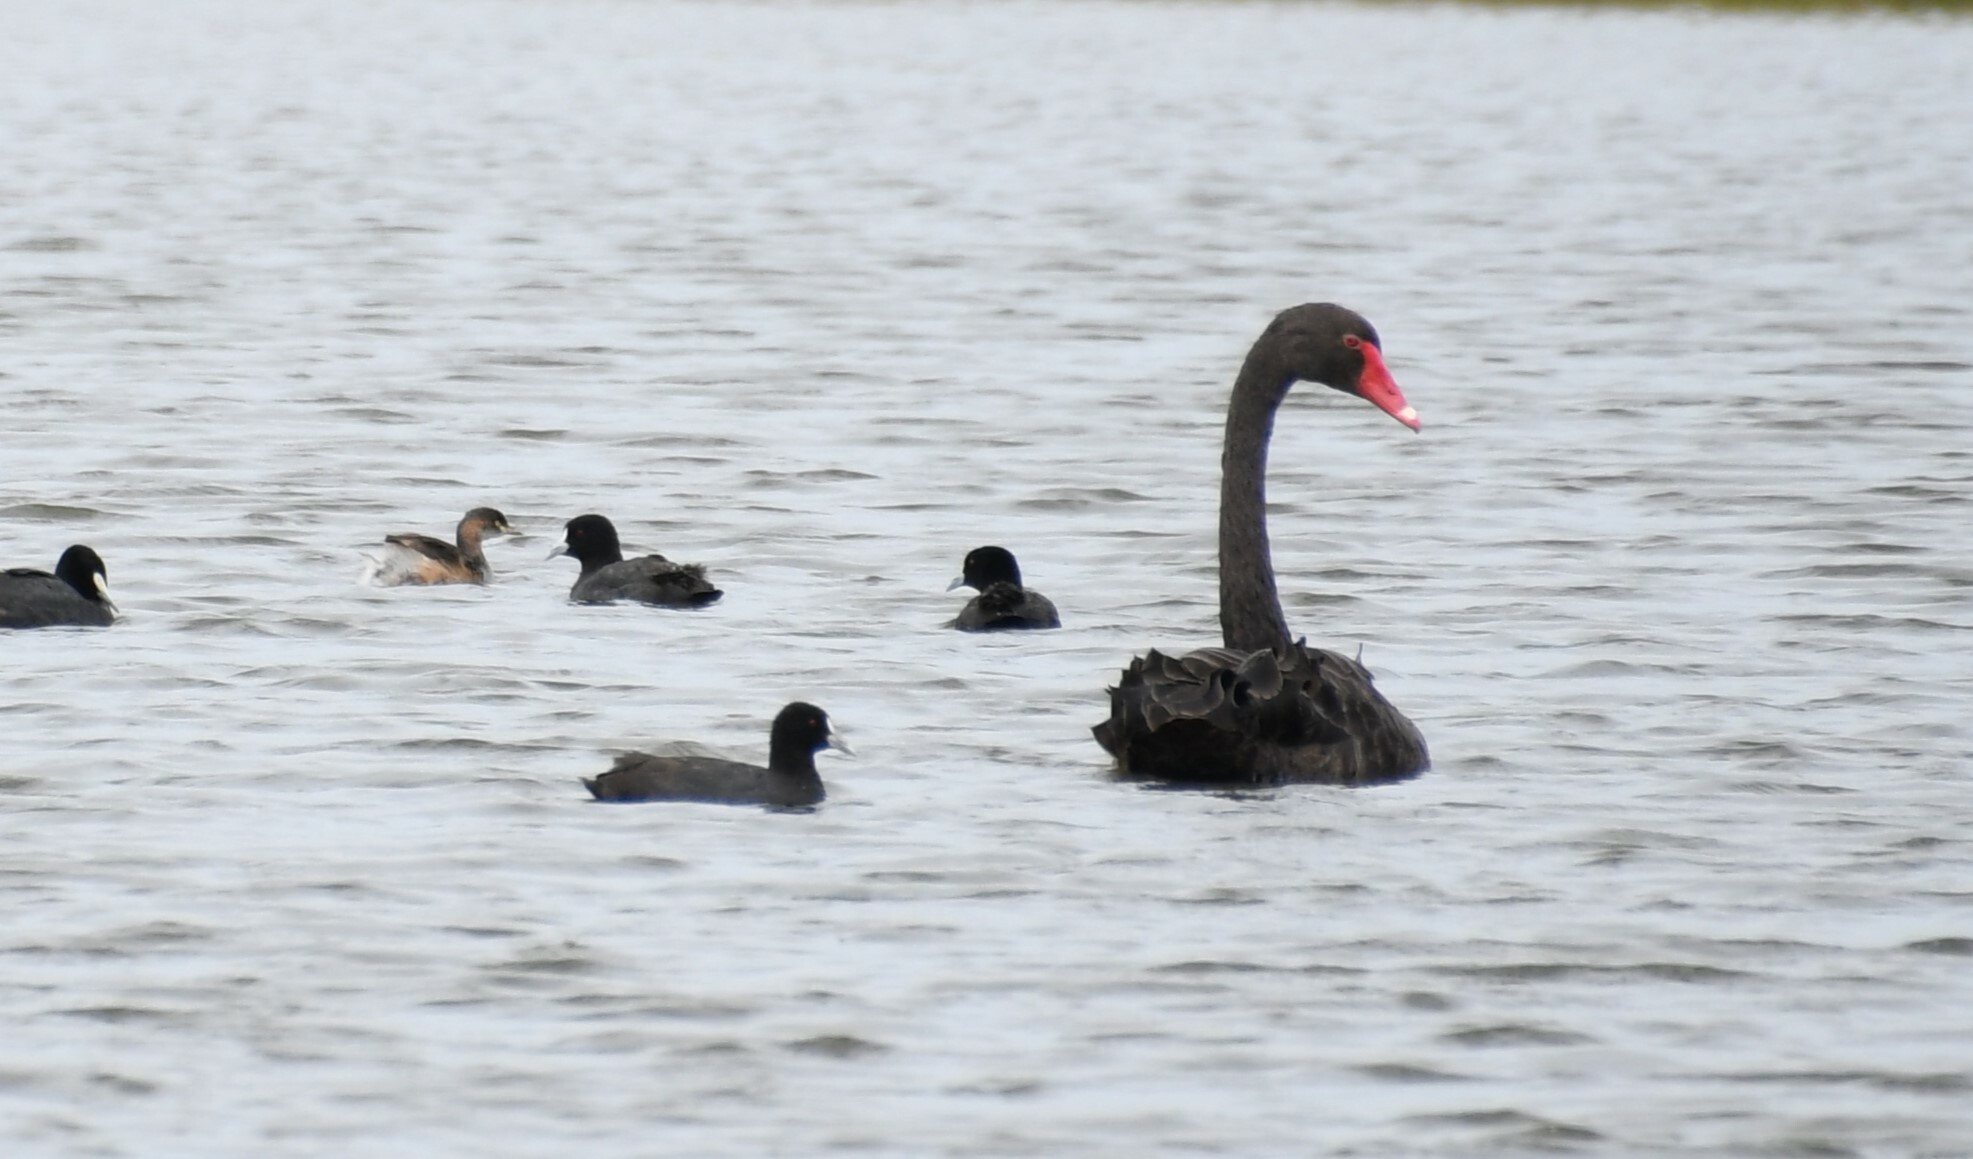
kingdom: Animalia
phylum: Chordata
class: Aves
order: Podicipediformes
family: Podicipedidae
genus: Tachybaptus
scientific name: Tachybaptus novaehollandiae
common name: Australasian grebe
